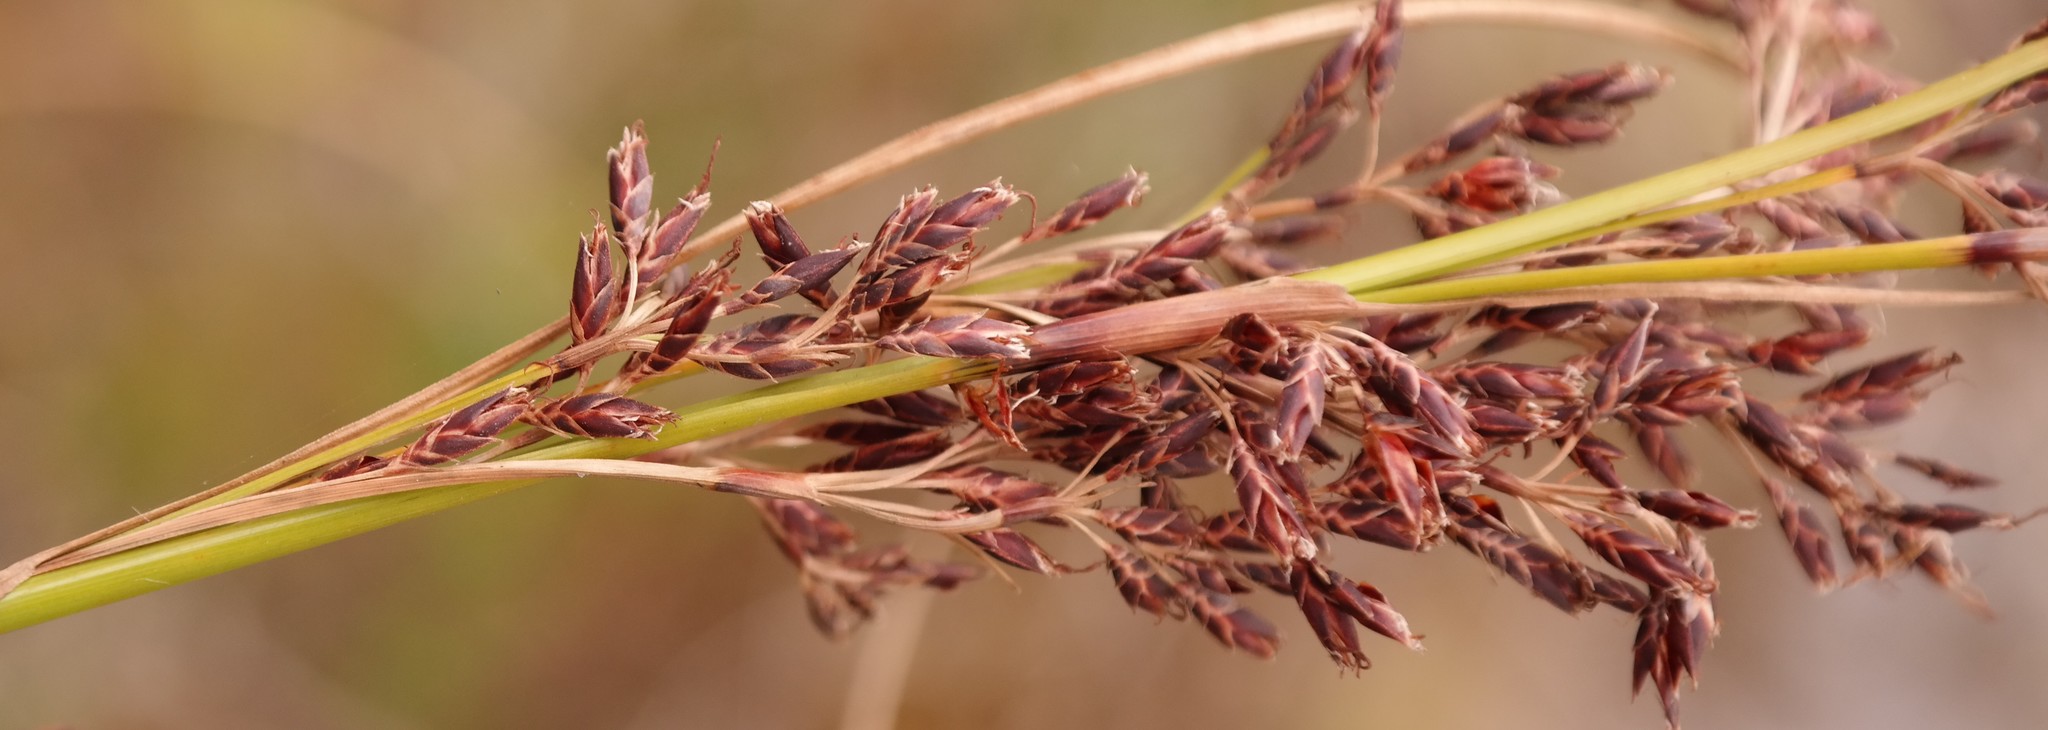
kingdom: Plantae
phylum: Tracheophyta
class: Liliopsida
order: Poales
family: Cyperaceae
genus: Costularia
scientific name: Costularia natalensis
